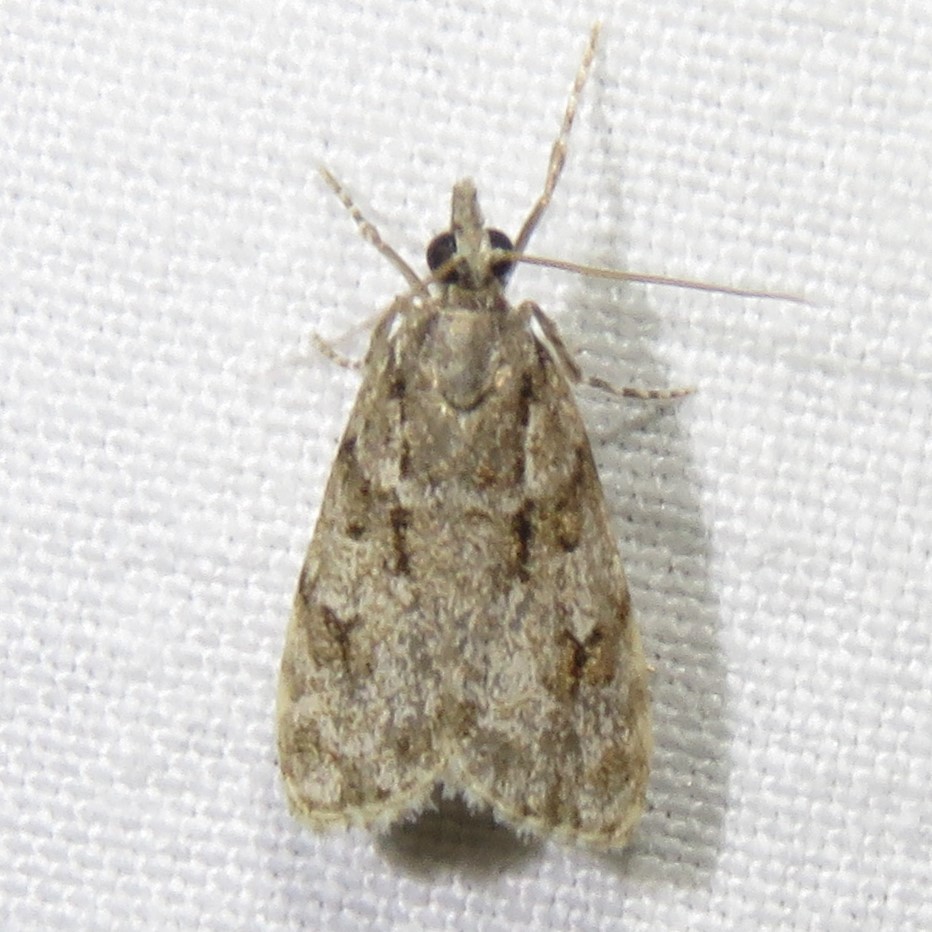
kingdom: Animalia
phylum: Arthropoda
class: Insecta
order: Lepidoptera
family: Crambidae
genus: Scoparia
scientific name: Scoparia biplagialis
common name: Double-striped scoparia moth
